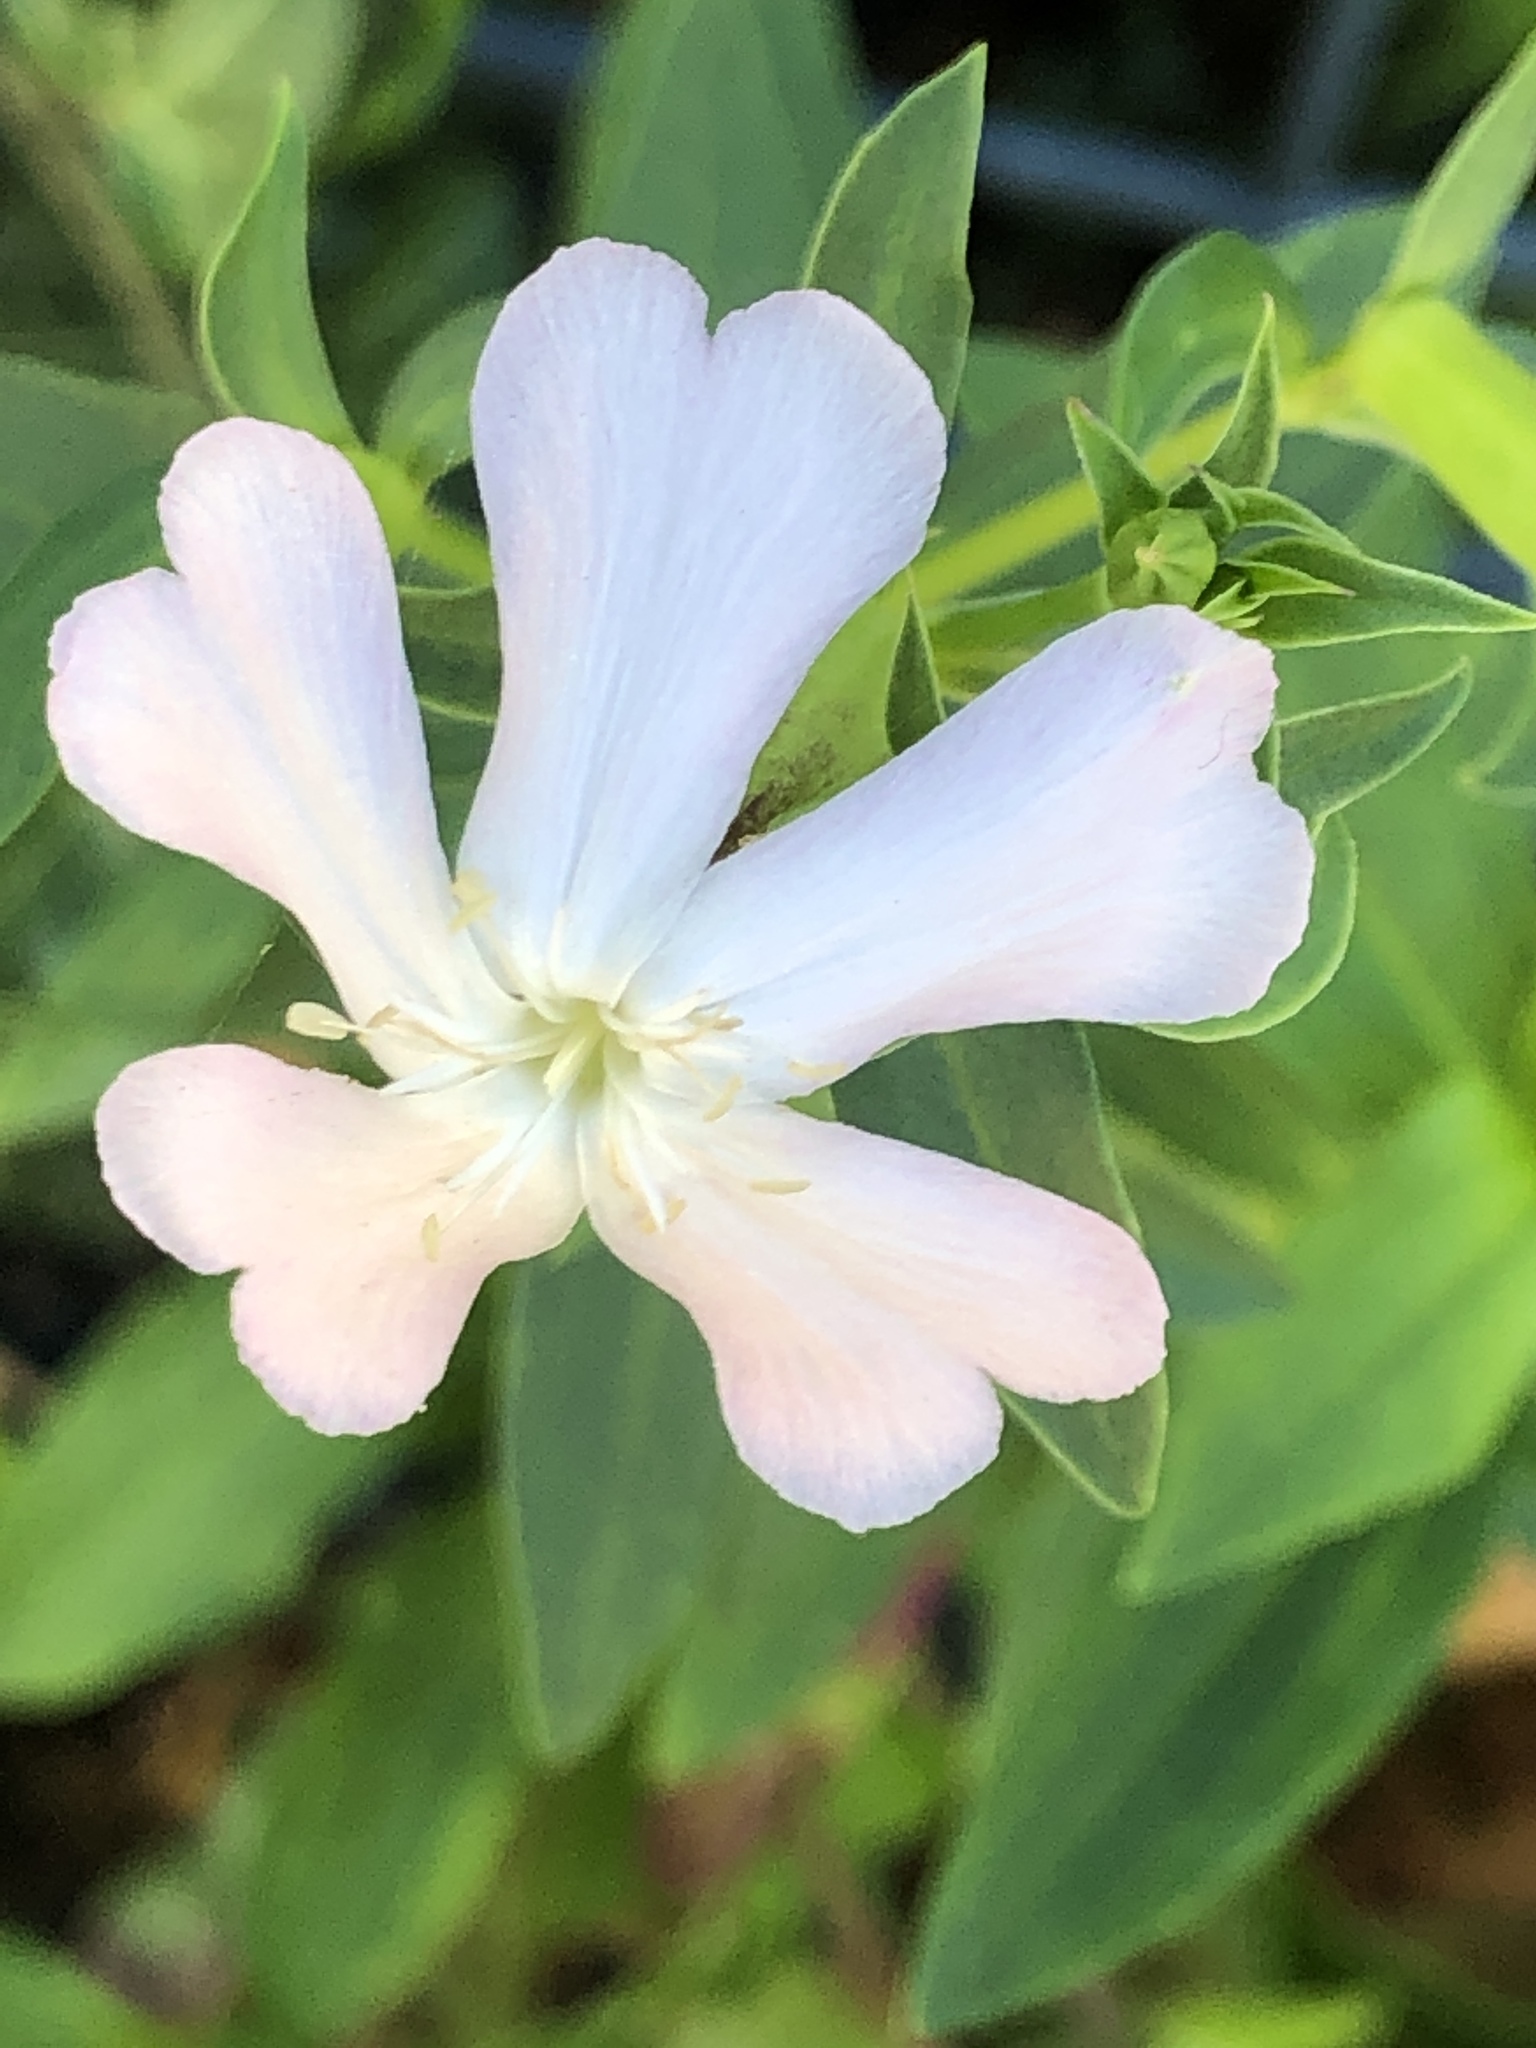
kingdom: Plantae
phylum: Tracheophyta
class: Magnoliopsida
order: Caryophyllales
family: Caryophyllaceae
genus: Saponaria
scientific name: Saponaria officinalis
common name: Soapwort
